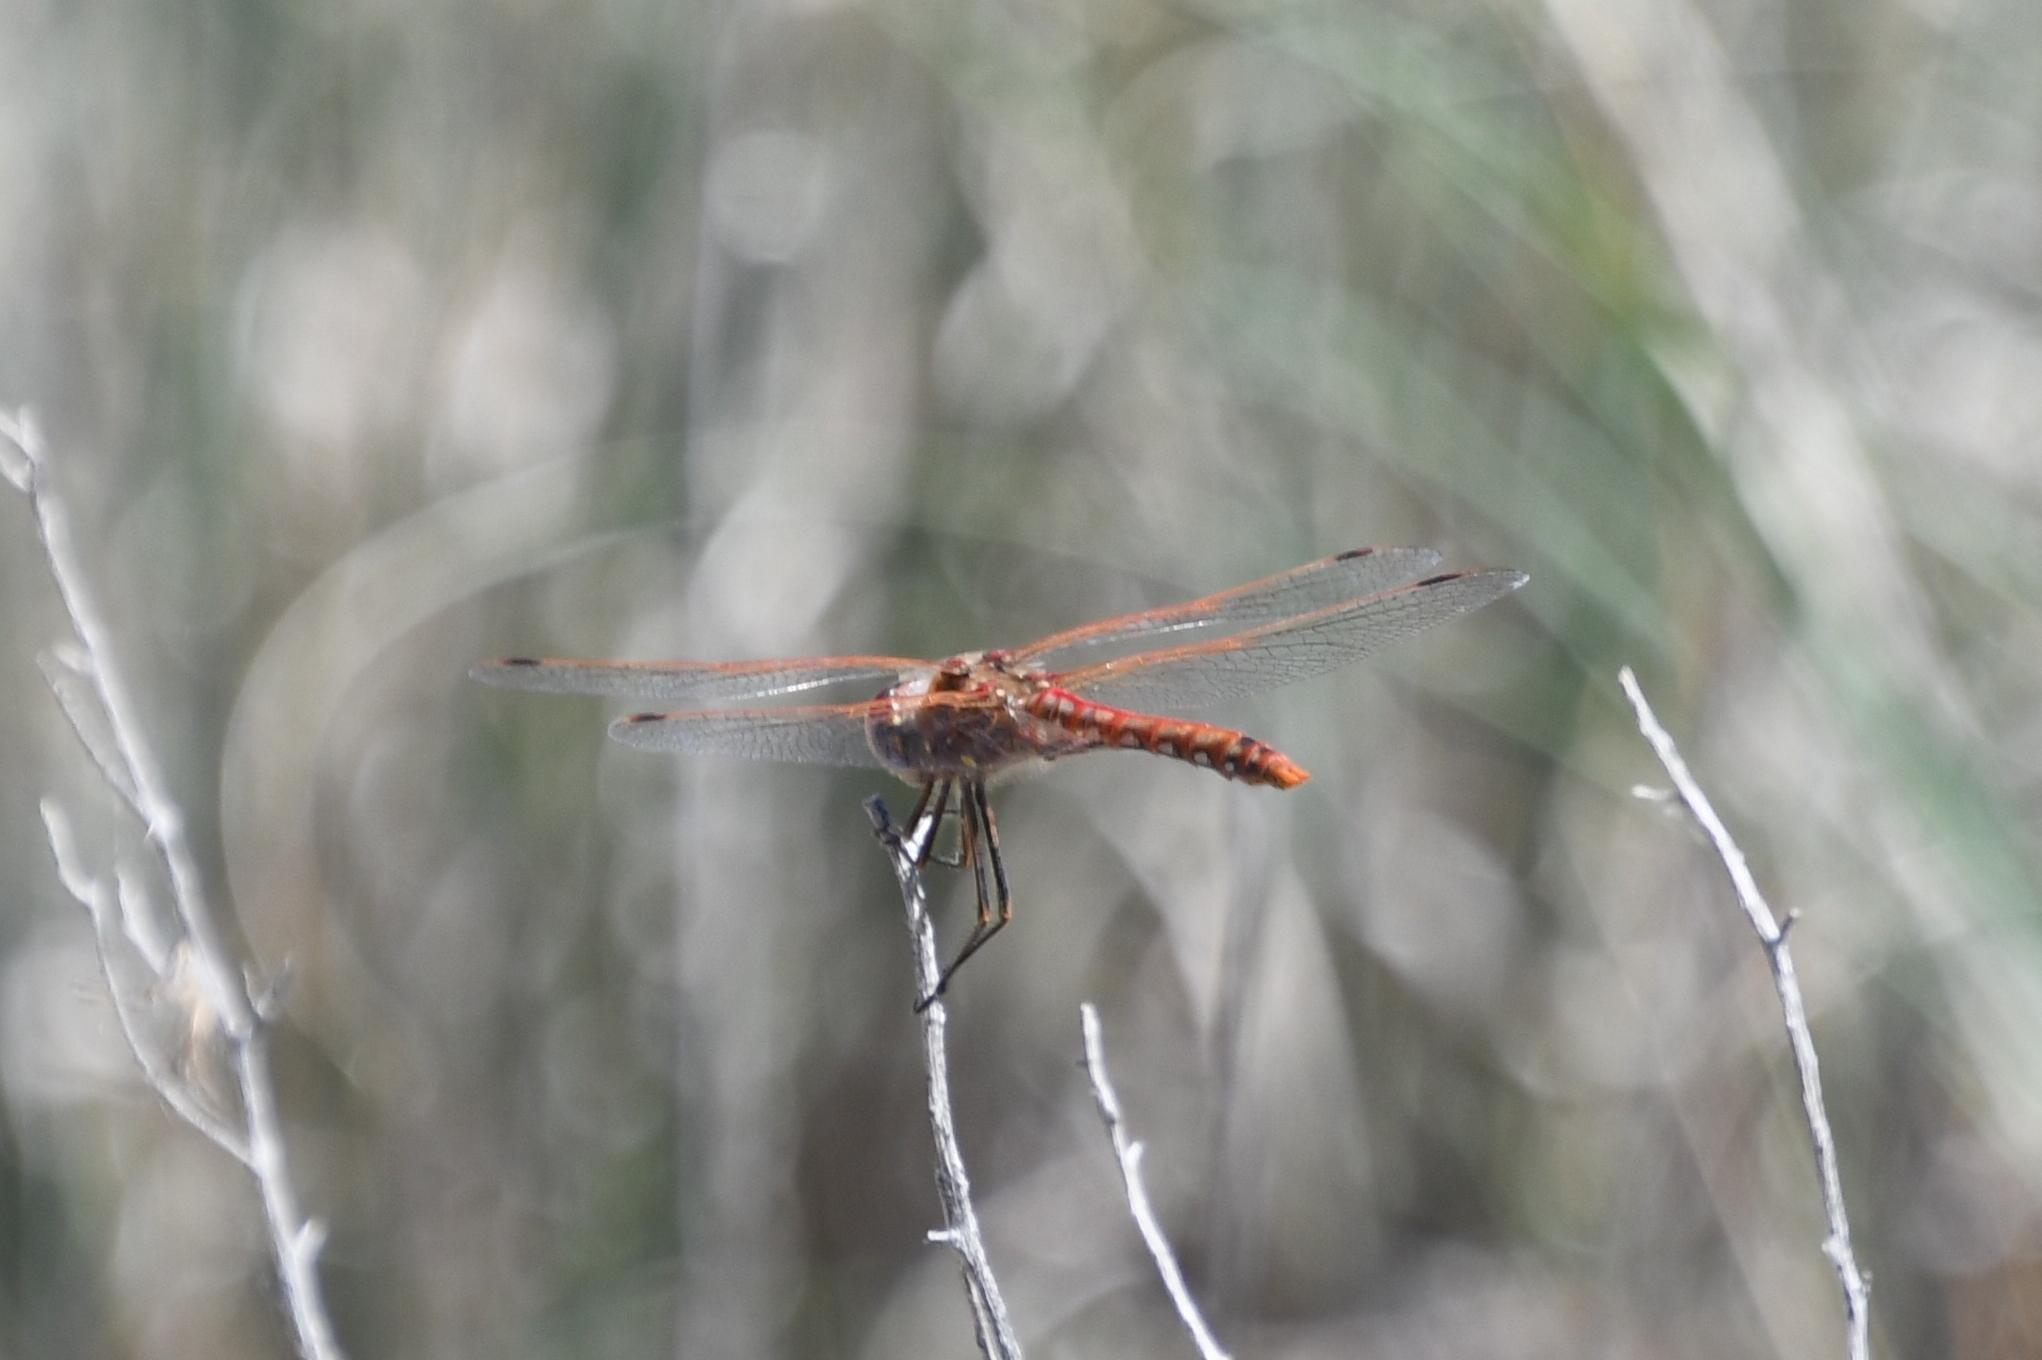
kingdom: Animalia
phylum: Arthropoda
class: Insecta
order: Odonata
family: Libellulidae
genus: Sympetrum
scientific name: Sympetrum corruptum
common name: Variegated meadowhawk
